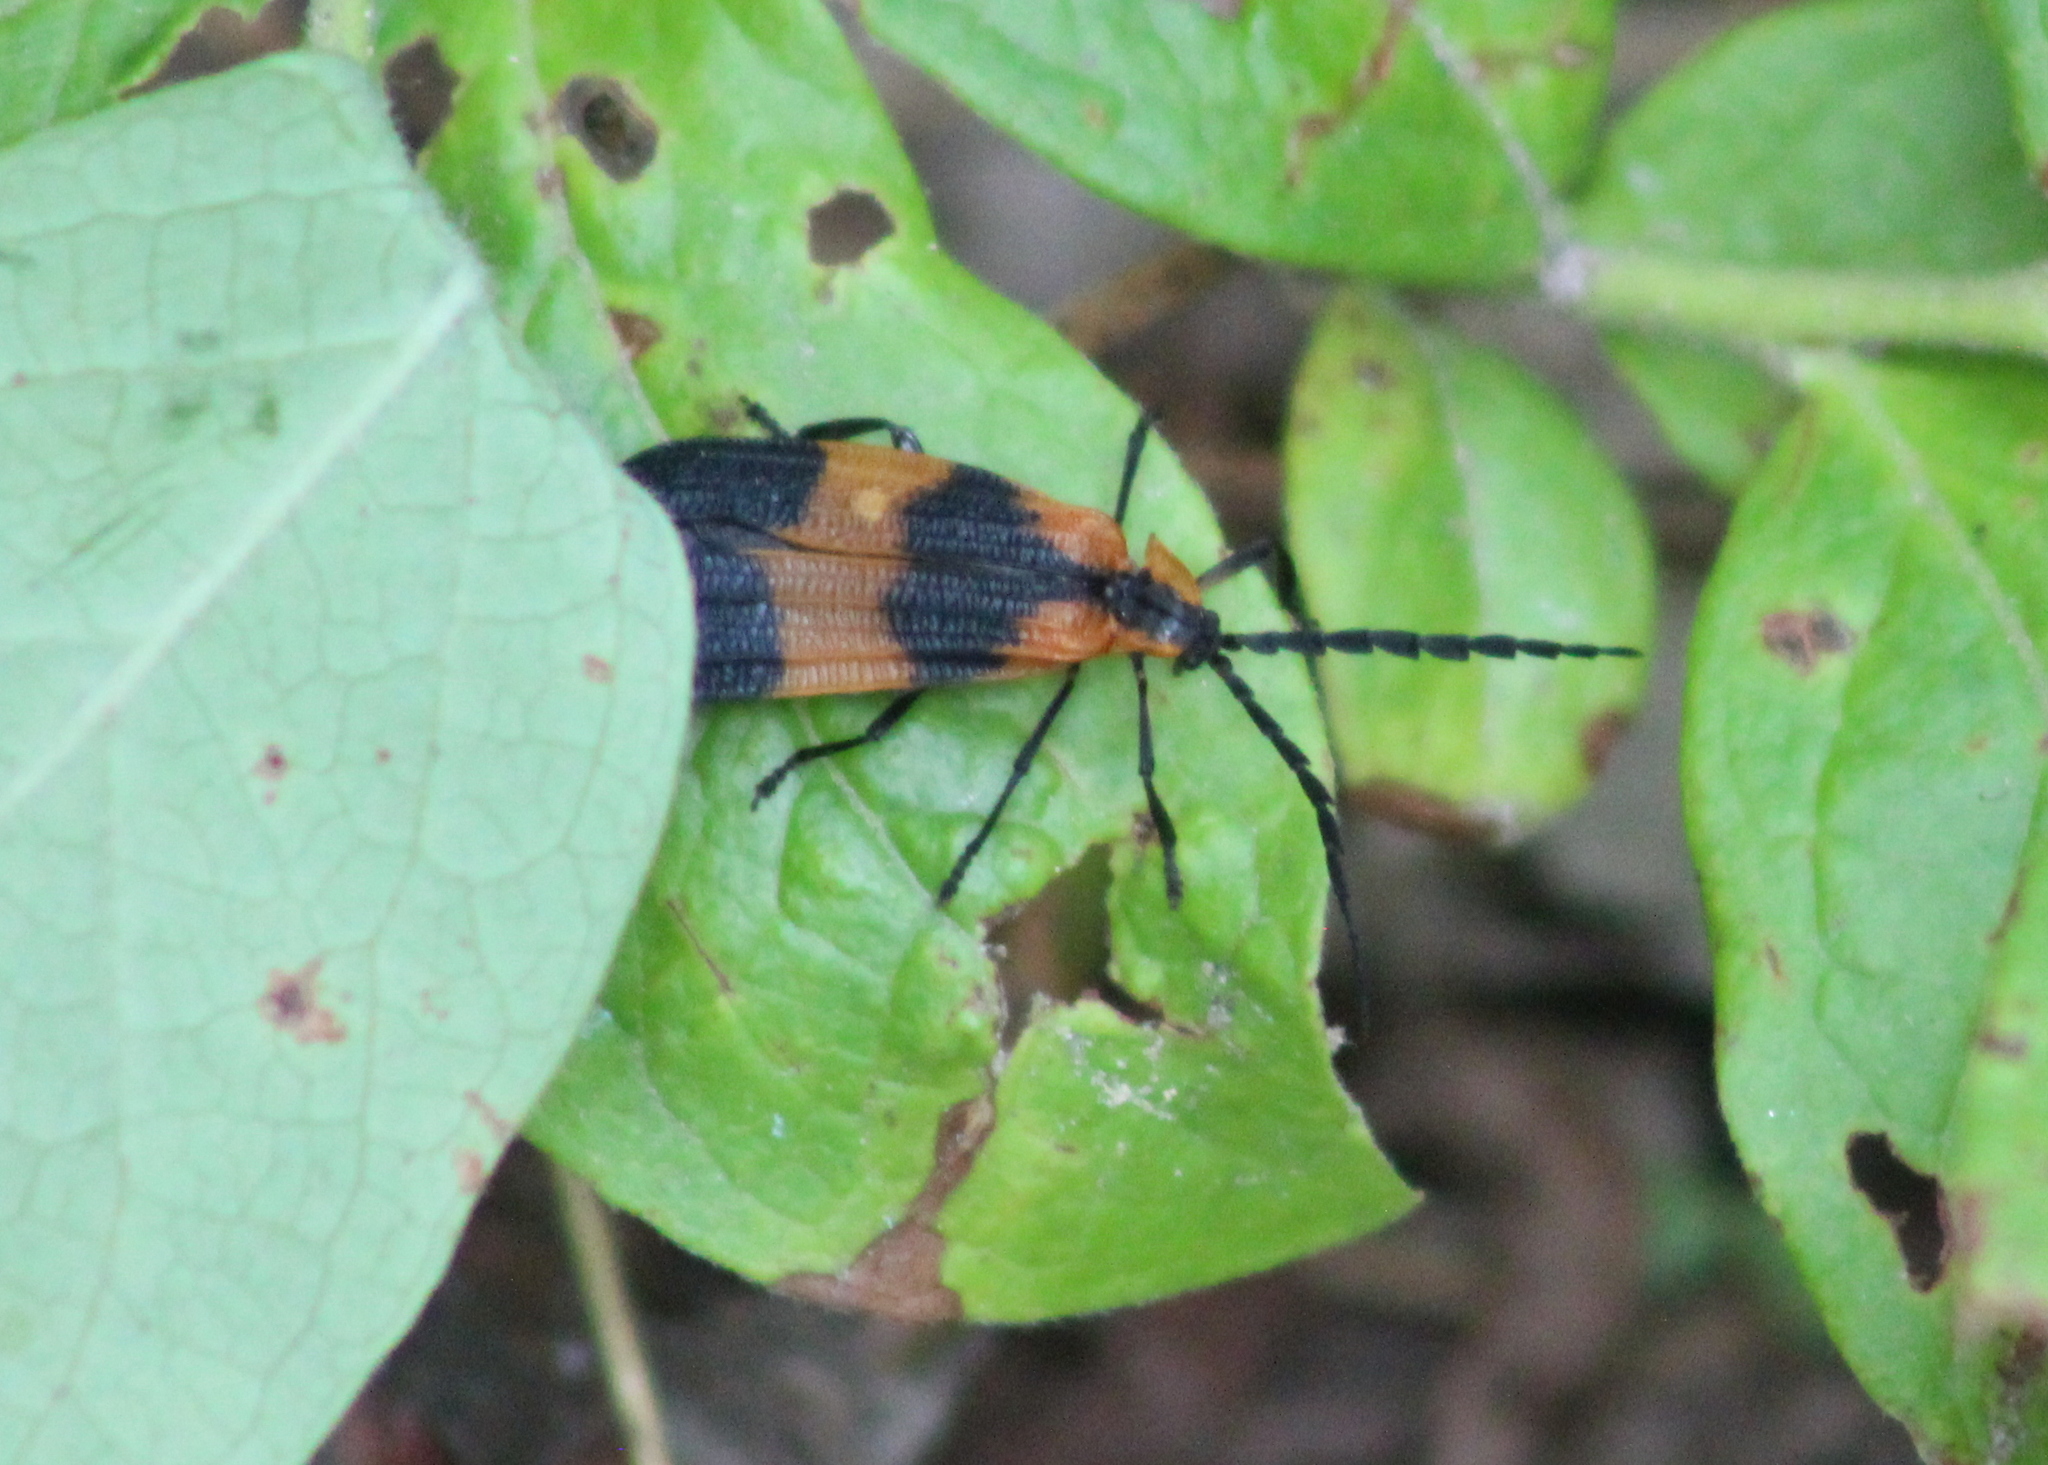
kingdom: Animalia
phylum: Arthropoda
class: Insecta
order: Coleoptera
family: Lycidae
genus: Calopteron
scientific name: Calopteron reticulatum
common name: Banded net-winged beetle
